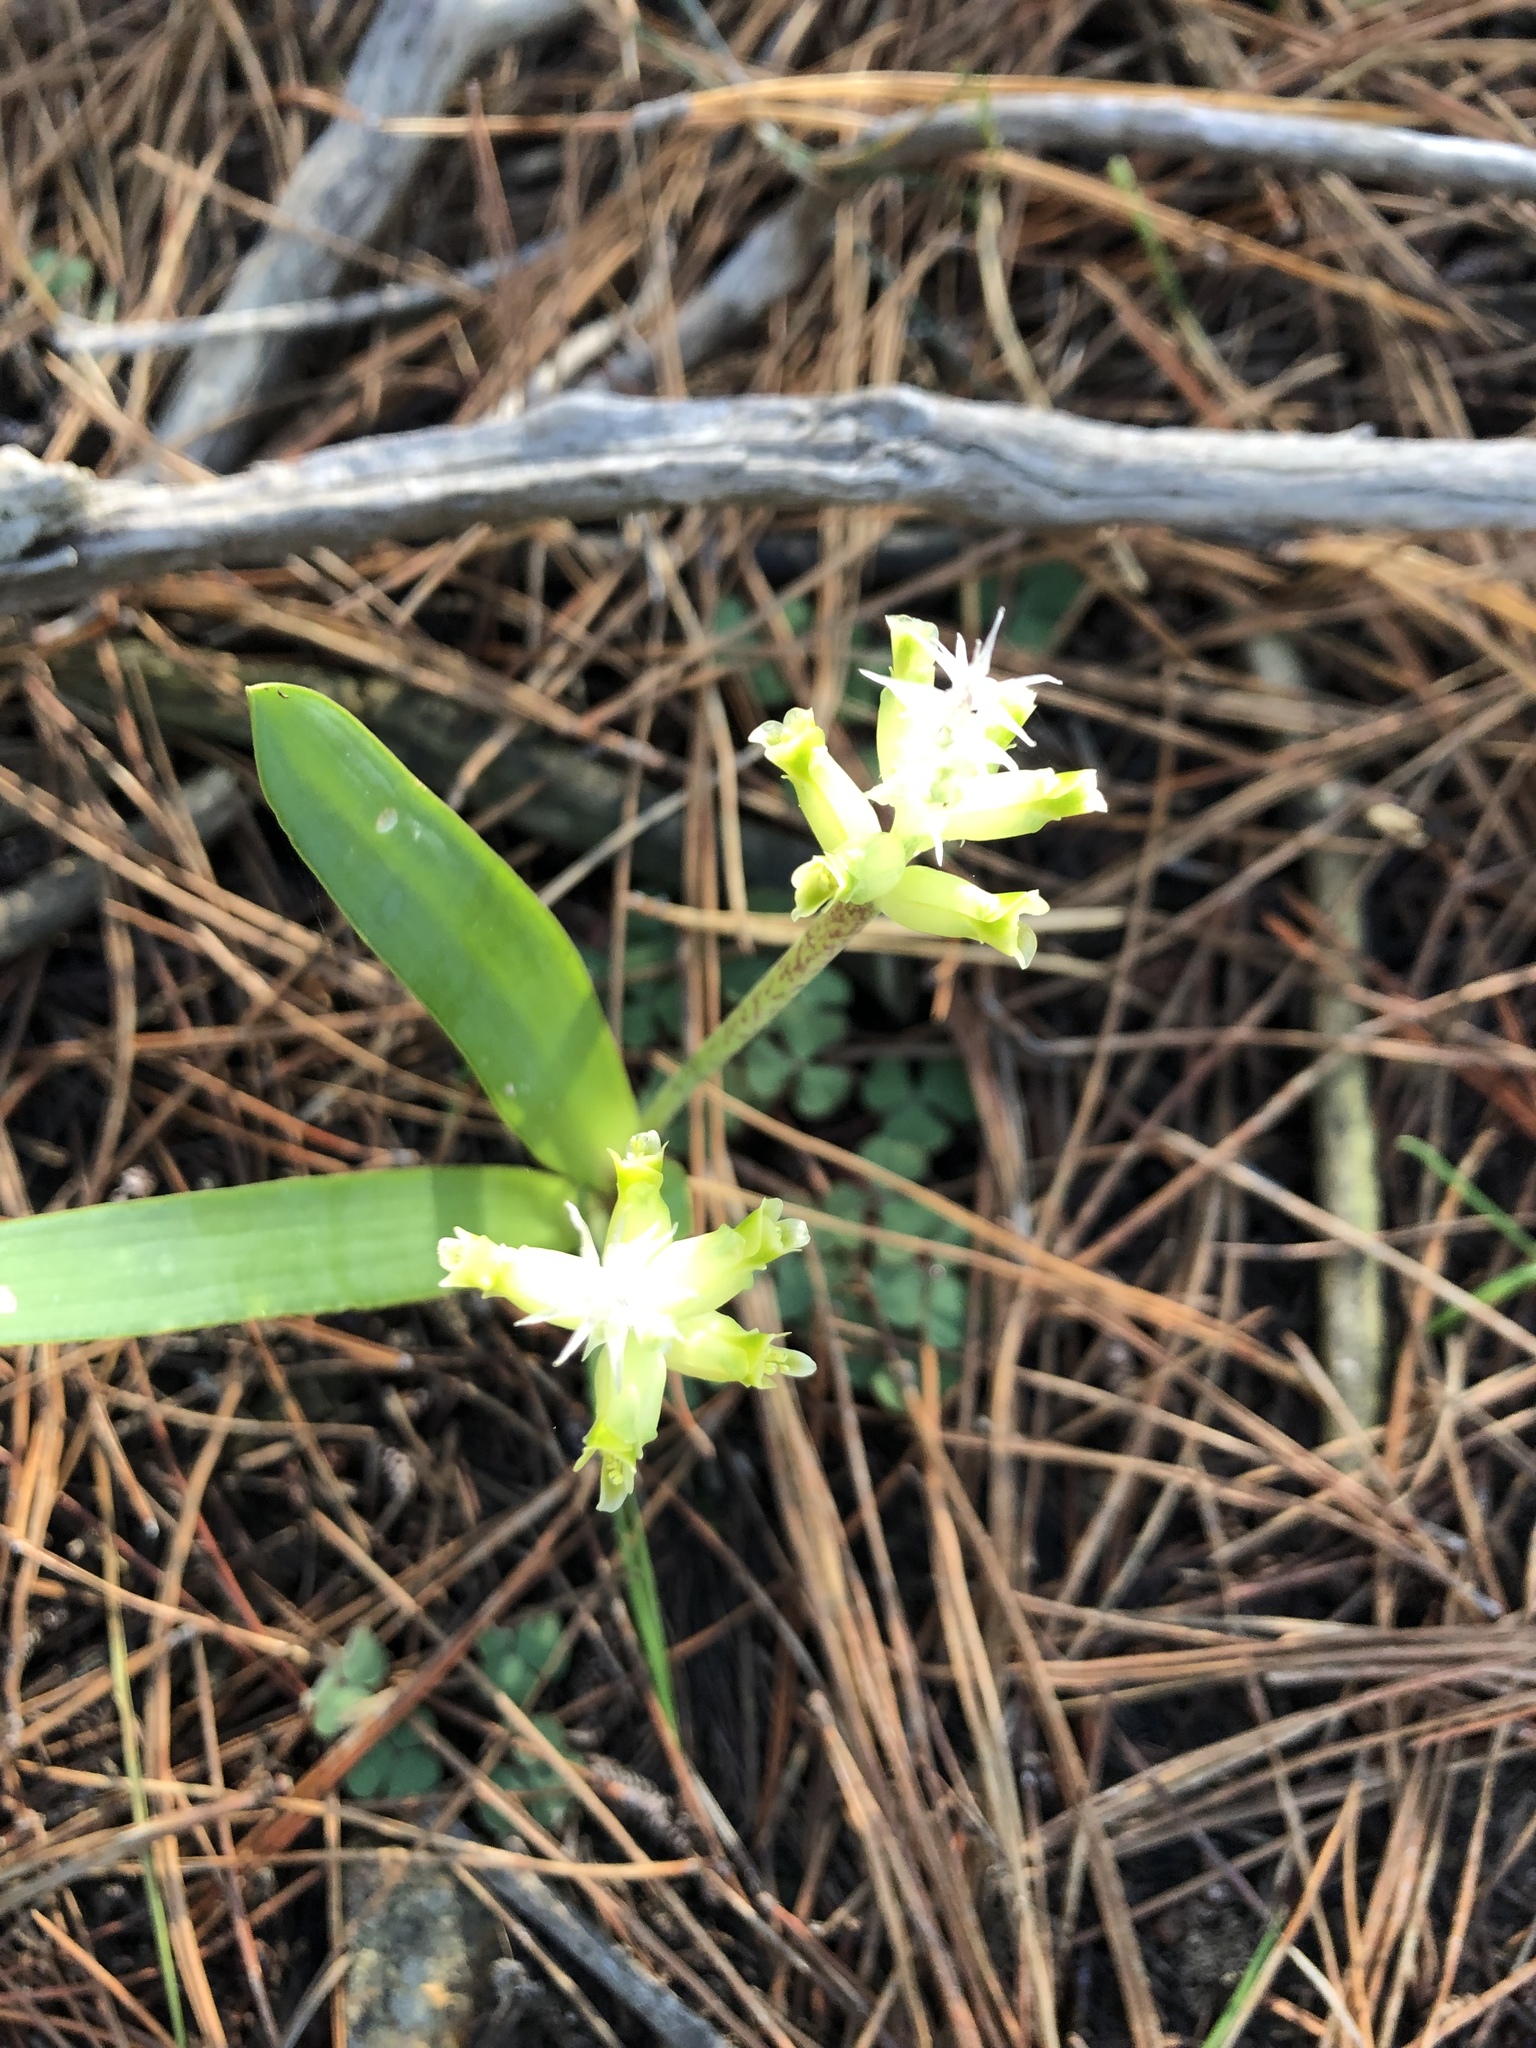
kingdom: Plantae
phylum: Tracheophyta
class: Liliopsida
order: Asparagales
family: Asparagaceae
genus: Lachenalia
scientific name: Lachenalia orchioides
